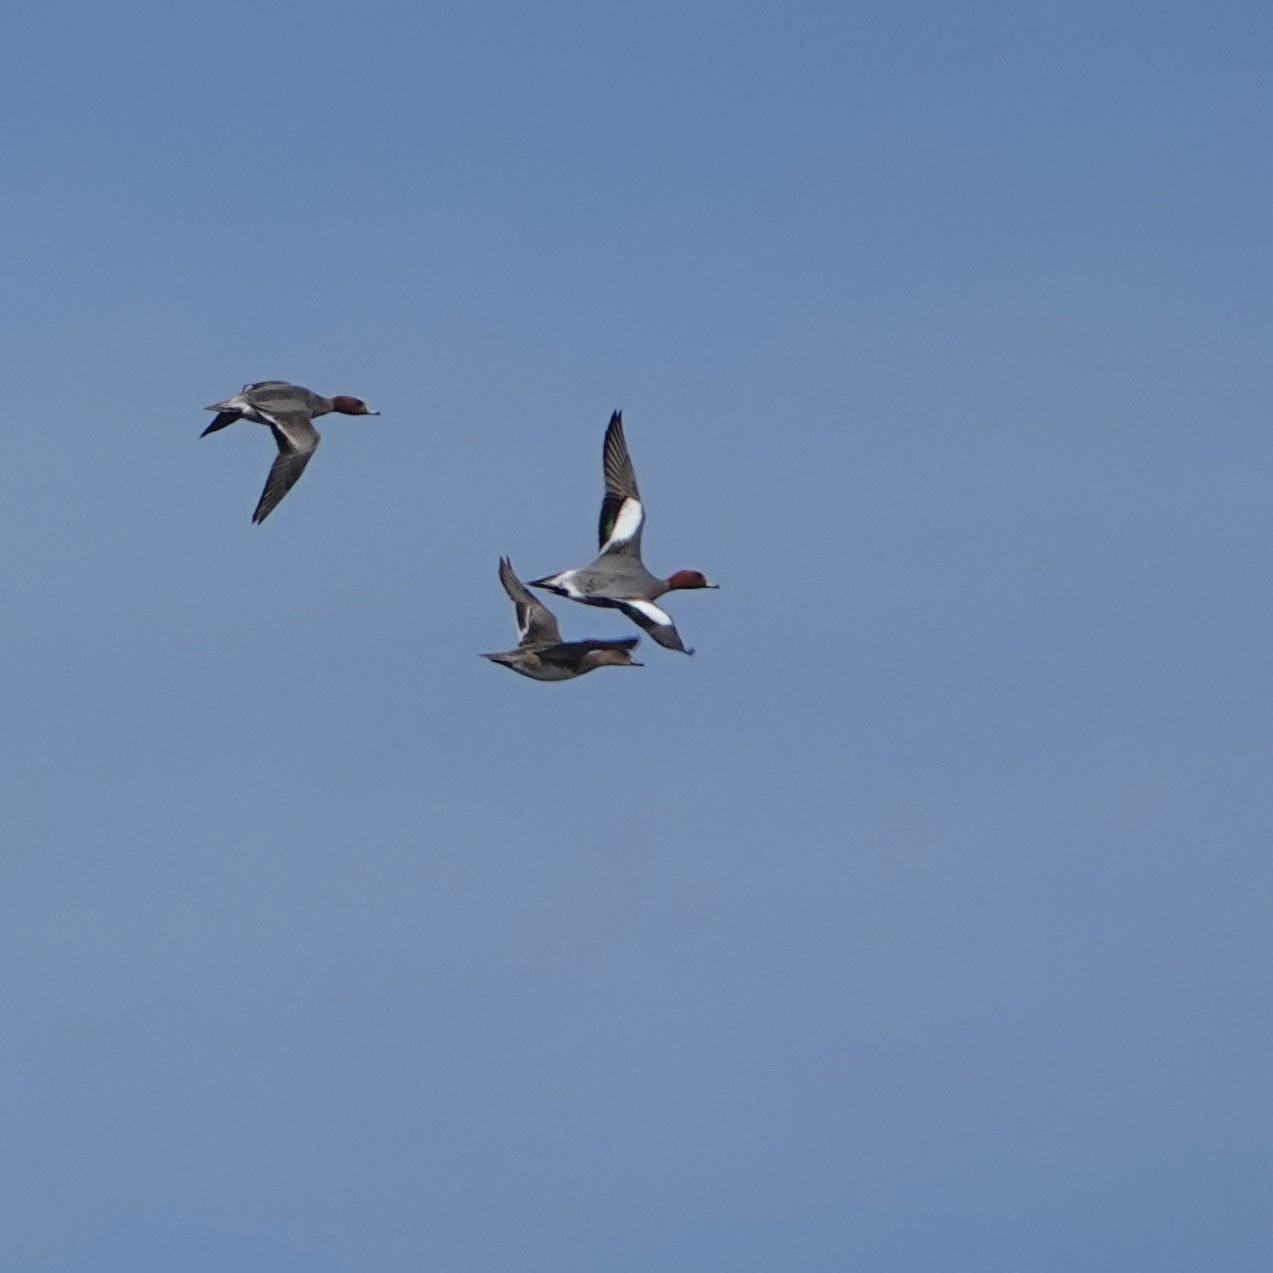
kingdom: Animalia
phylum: Chordata
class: Aves
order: Anseriformes
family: Anatidae
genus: Mareca
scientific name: Mareca penelope
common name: Eurasian wigeon
